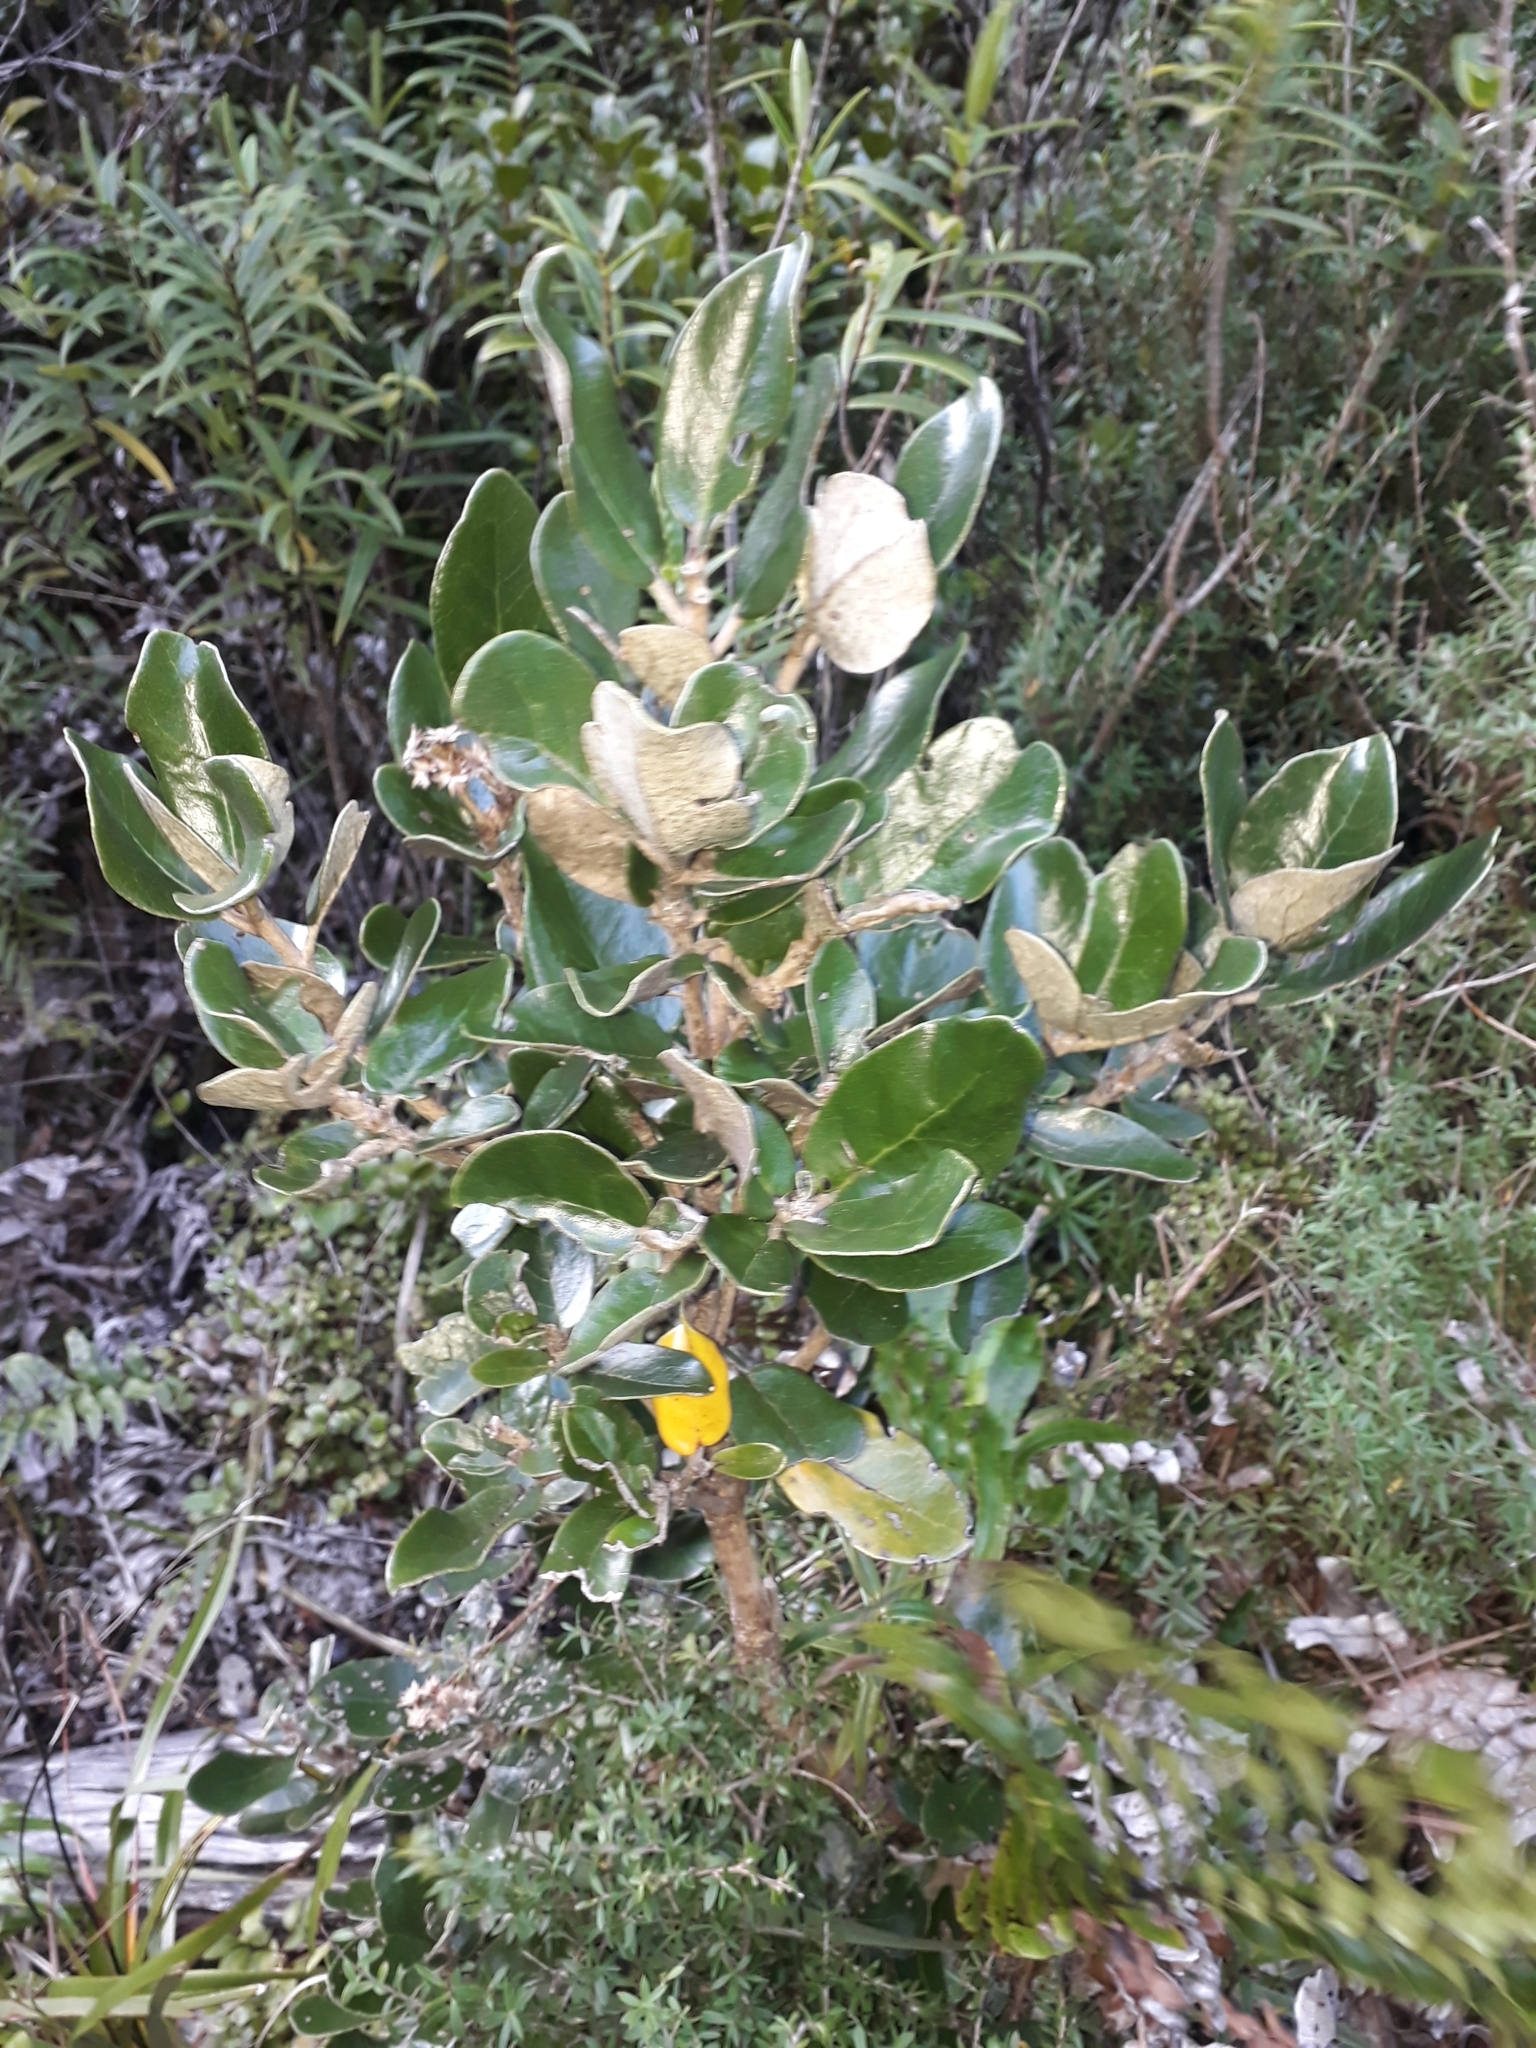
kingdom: Plantae
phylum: Tracheophyta
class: Magnoliopsida
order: Asterales
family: Asteraceae
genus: Olearia
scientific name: Olearia allomii
